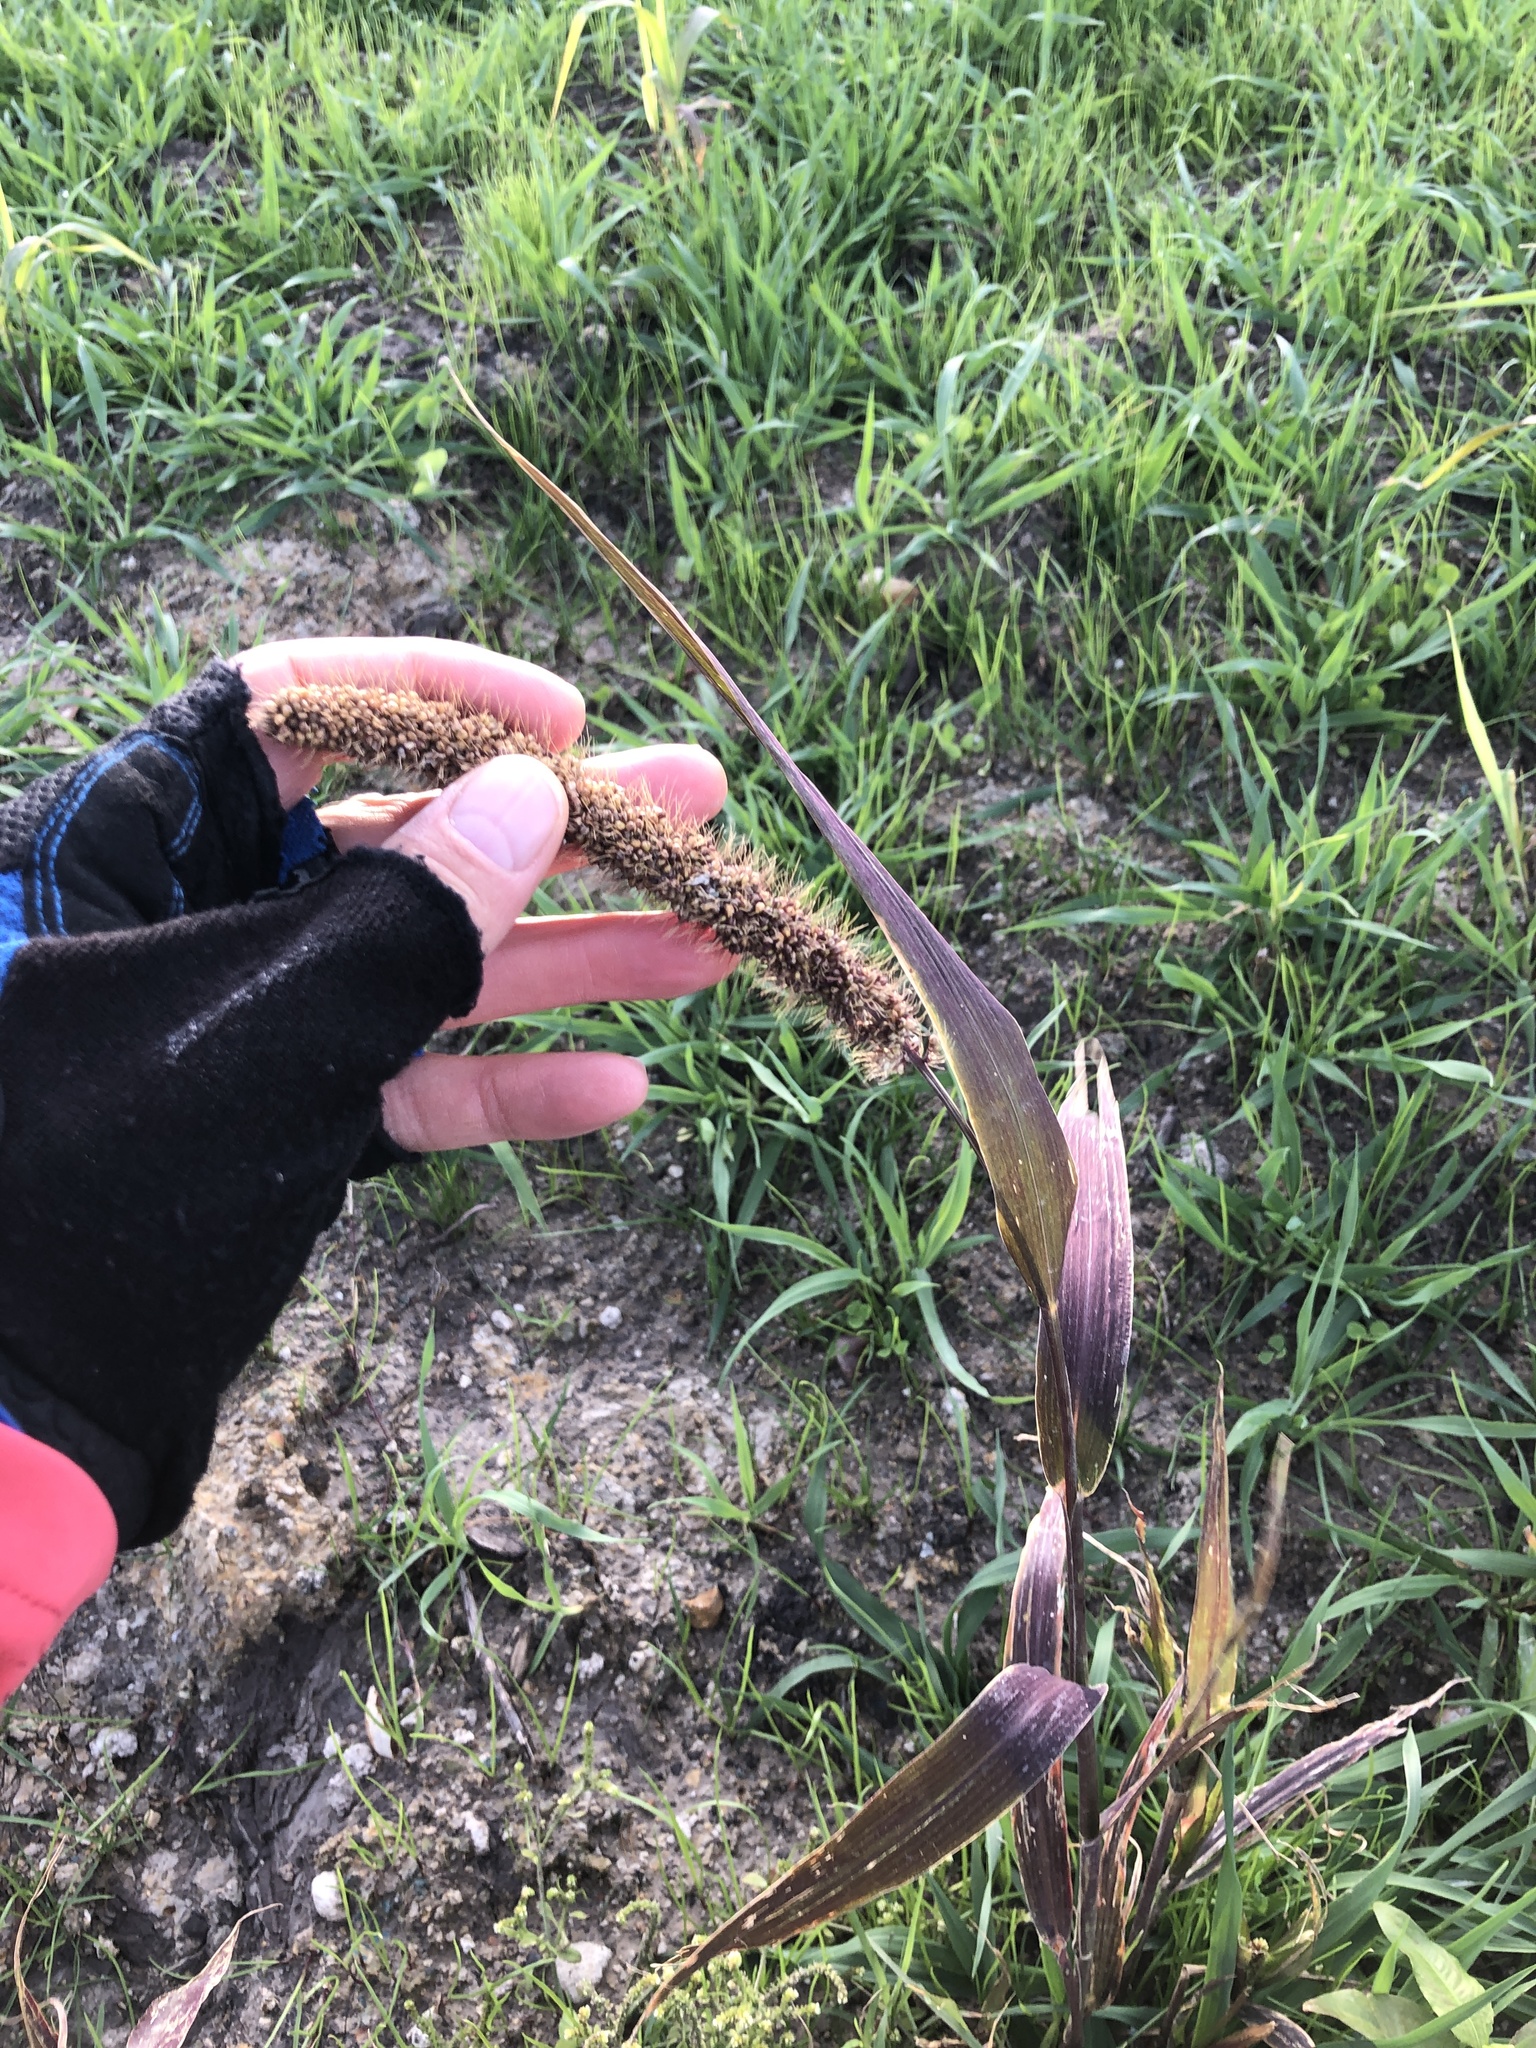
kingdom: Plantae
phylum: Tracheophyta
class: Liliopsida
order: Poales
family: Poaceae
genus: Setaria
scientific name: Setaria viridis
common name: Green bristlegrass
